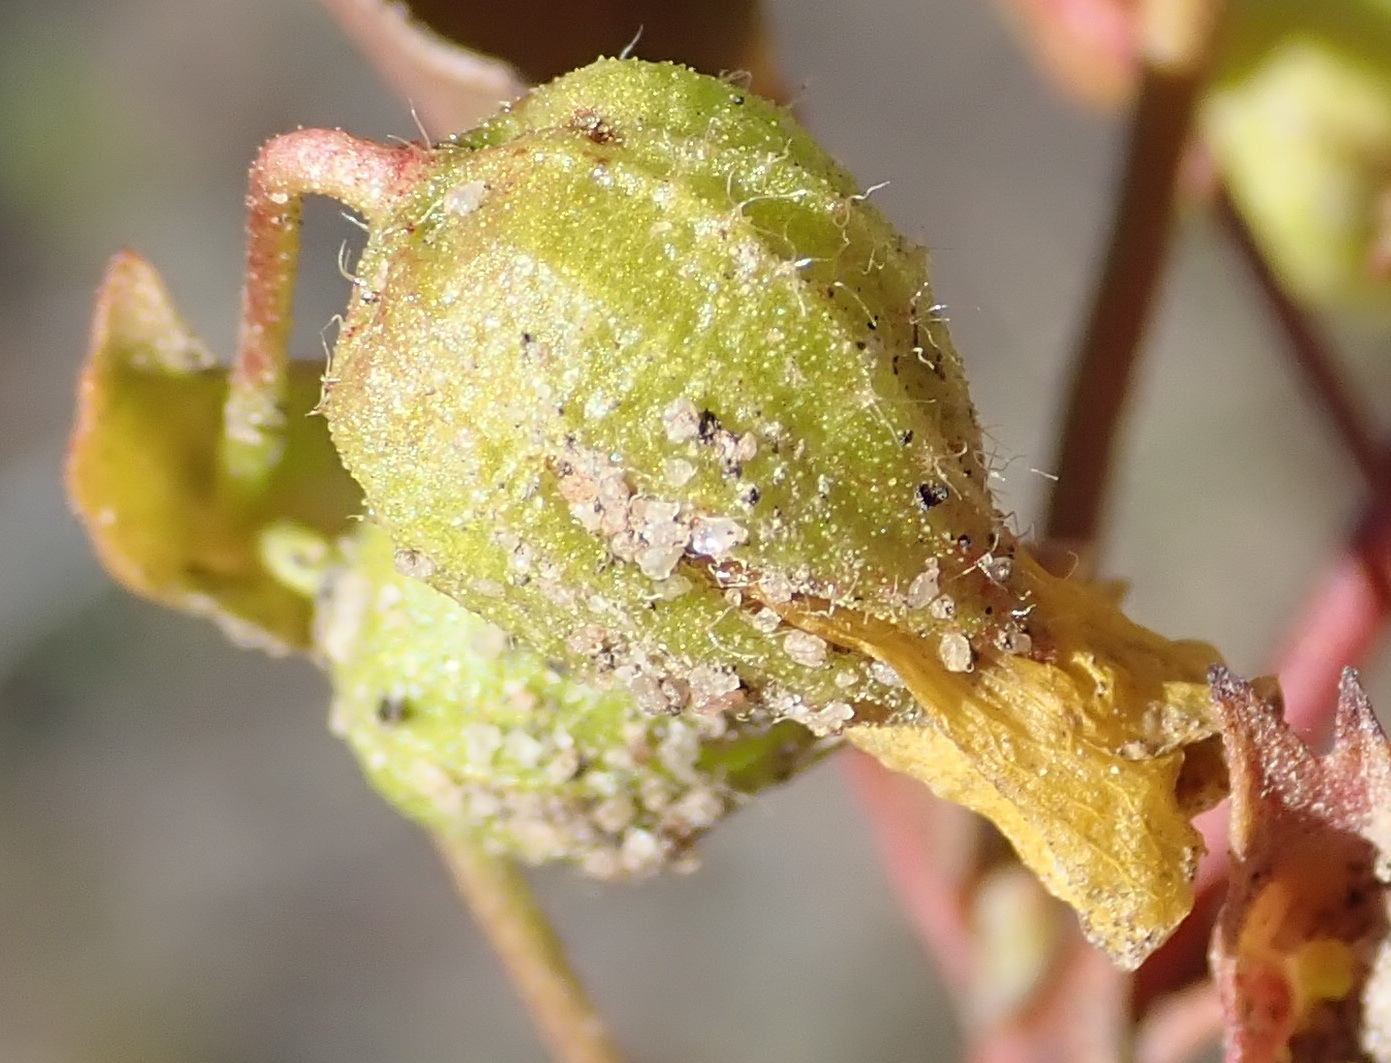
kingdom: Plantae
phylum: Tracheophyta
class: Magnoliopsida
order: Malvales
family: Malvaceae
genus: Hermannia
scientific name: Hermannia saccifera
